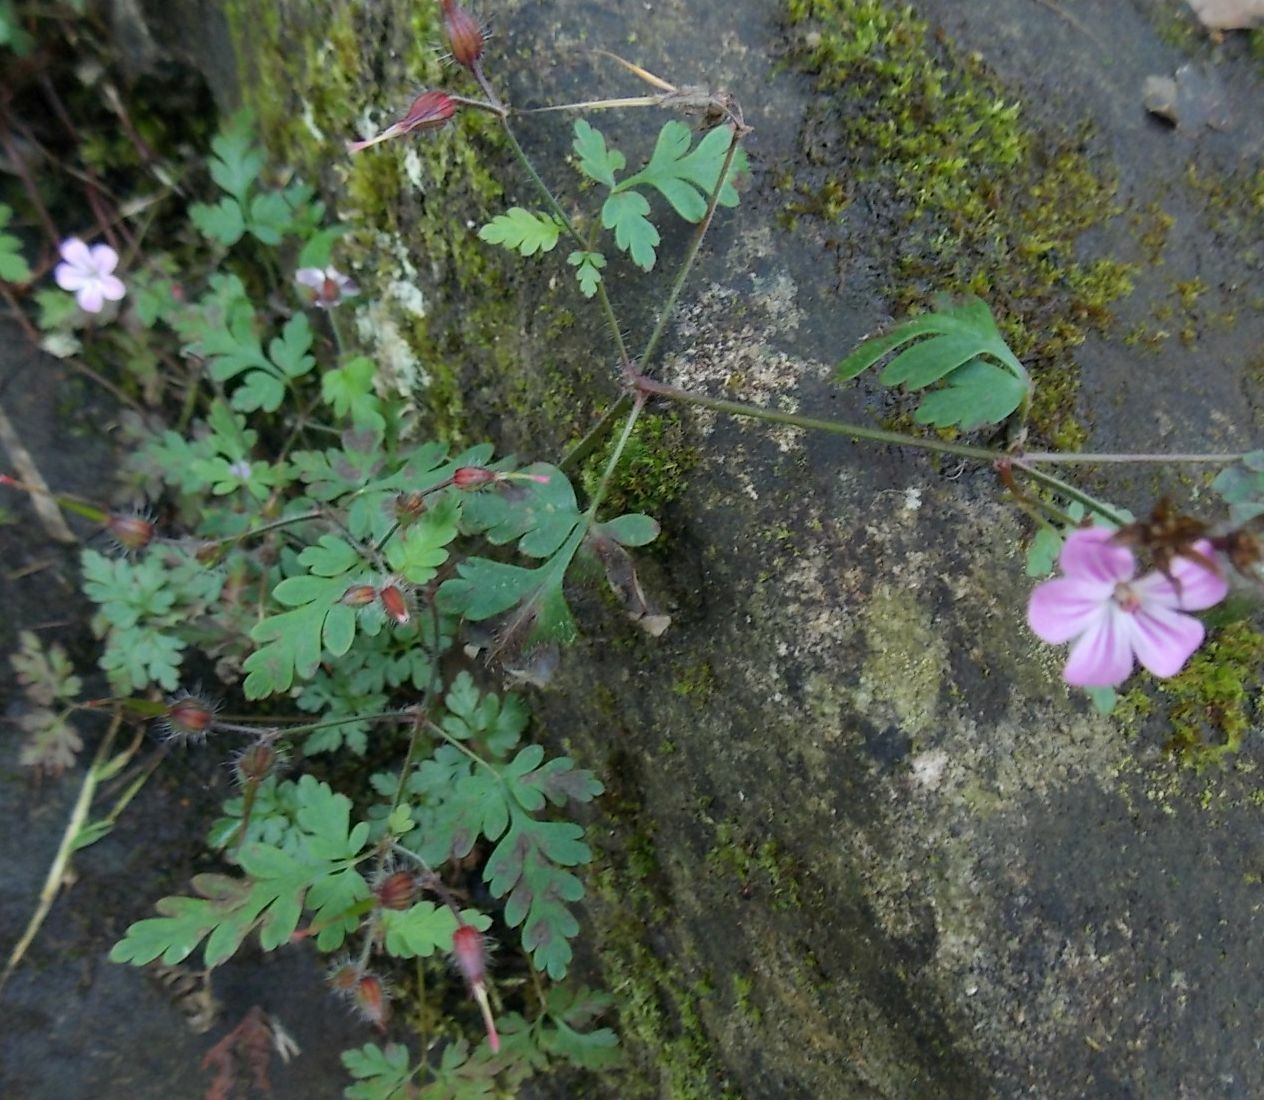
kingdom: Plantae
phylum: Tracheophyta
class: Magnoliopsida
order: Geraniales
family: Geraniaceae
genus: Geranium
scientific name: Geranium robertianum
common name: Herb-robert
